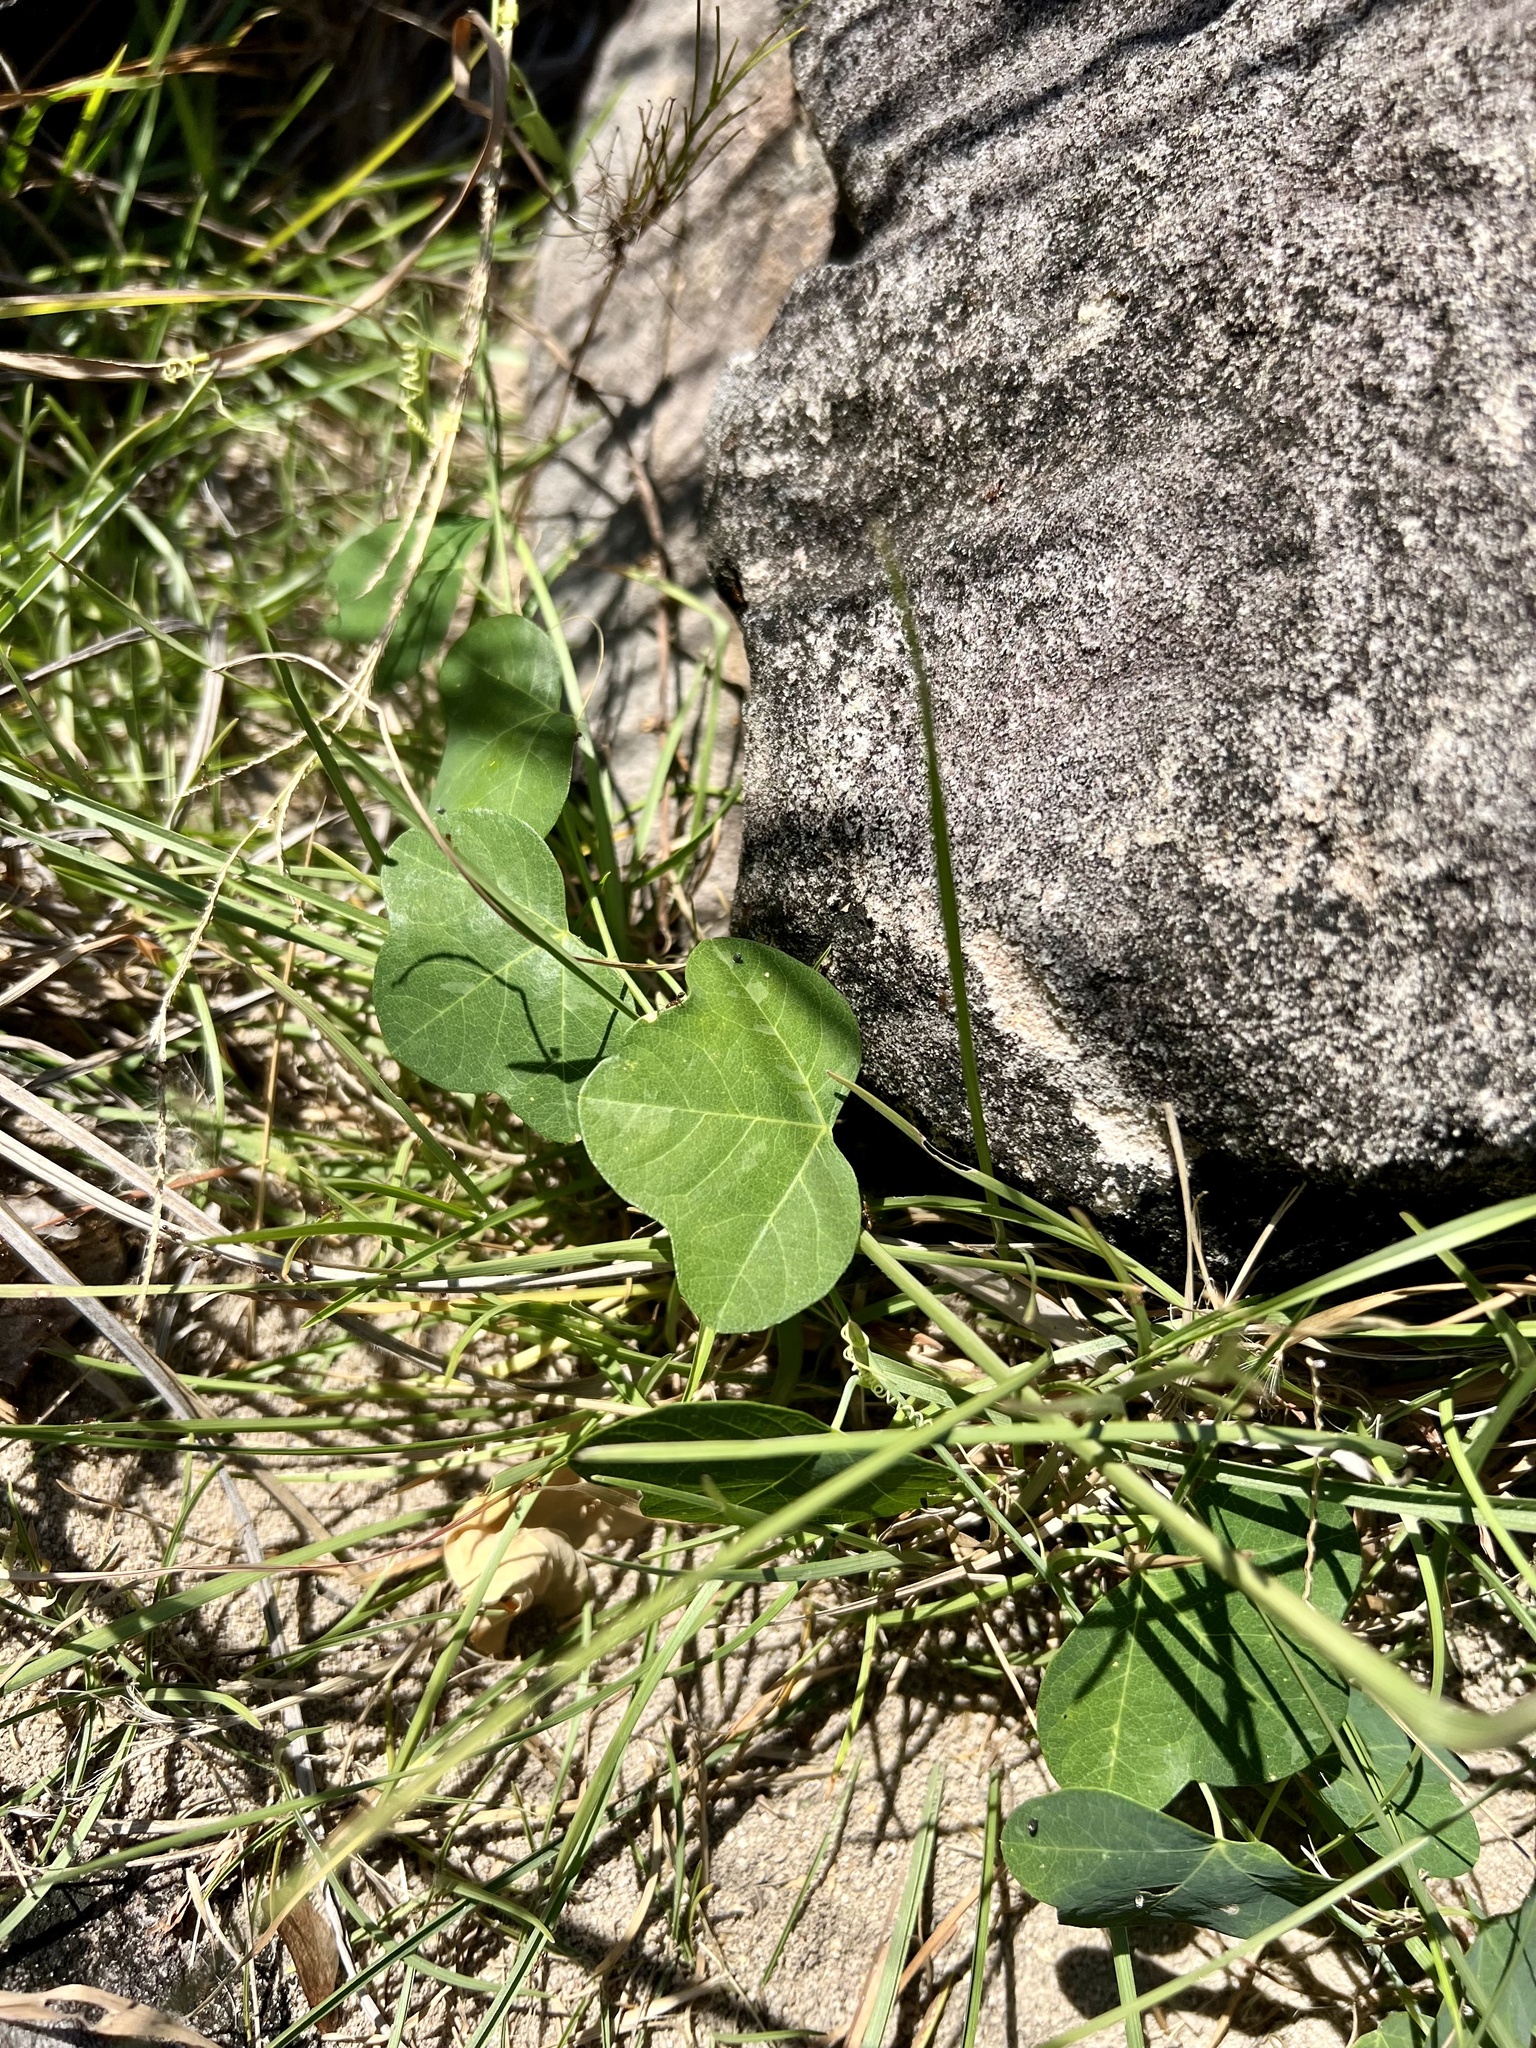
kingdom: Plantae
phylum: Tracheophyta
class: Magnoliopsida
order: Malpighiales
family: Passifloraceae
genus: Passiflora
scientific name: Passiflora lutea
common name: Yellow passionflower
